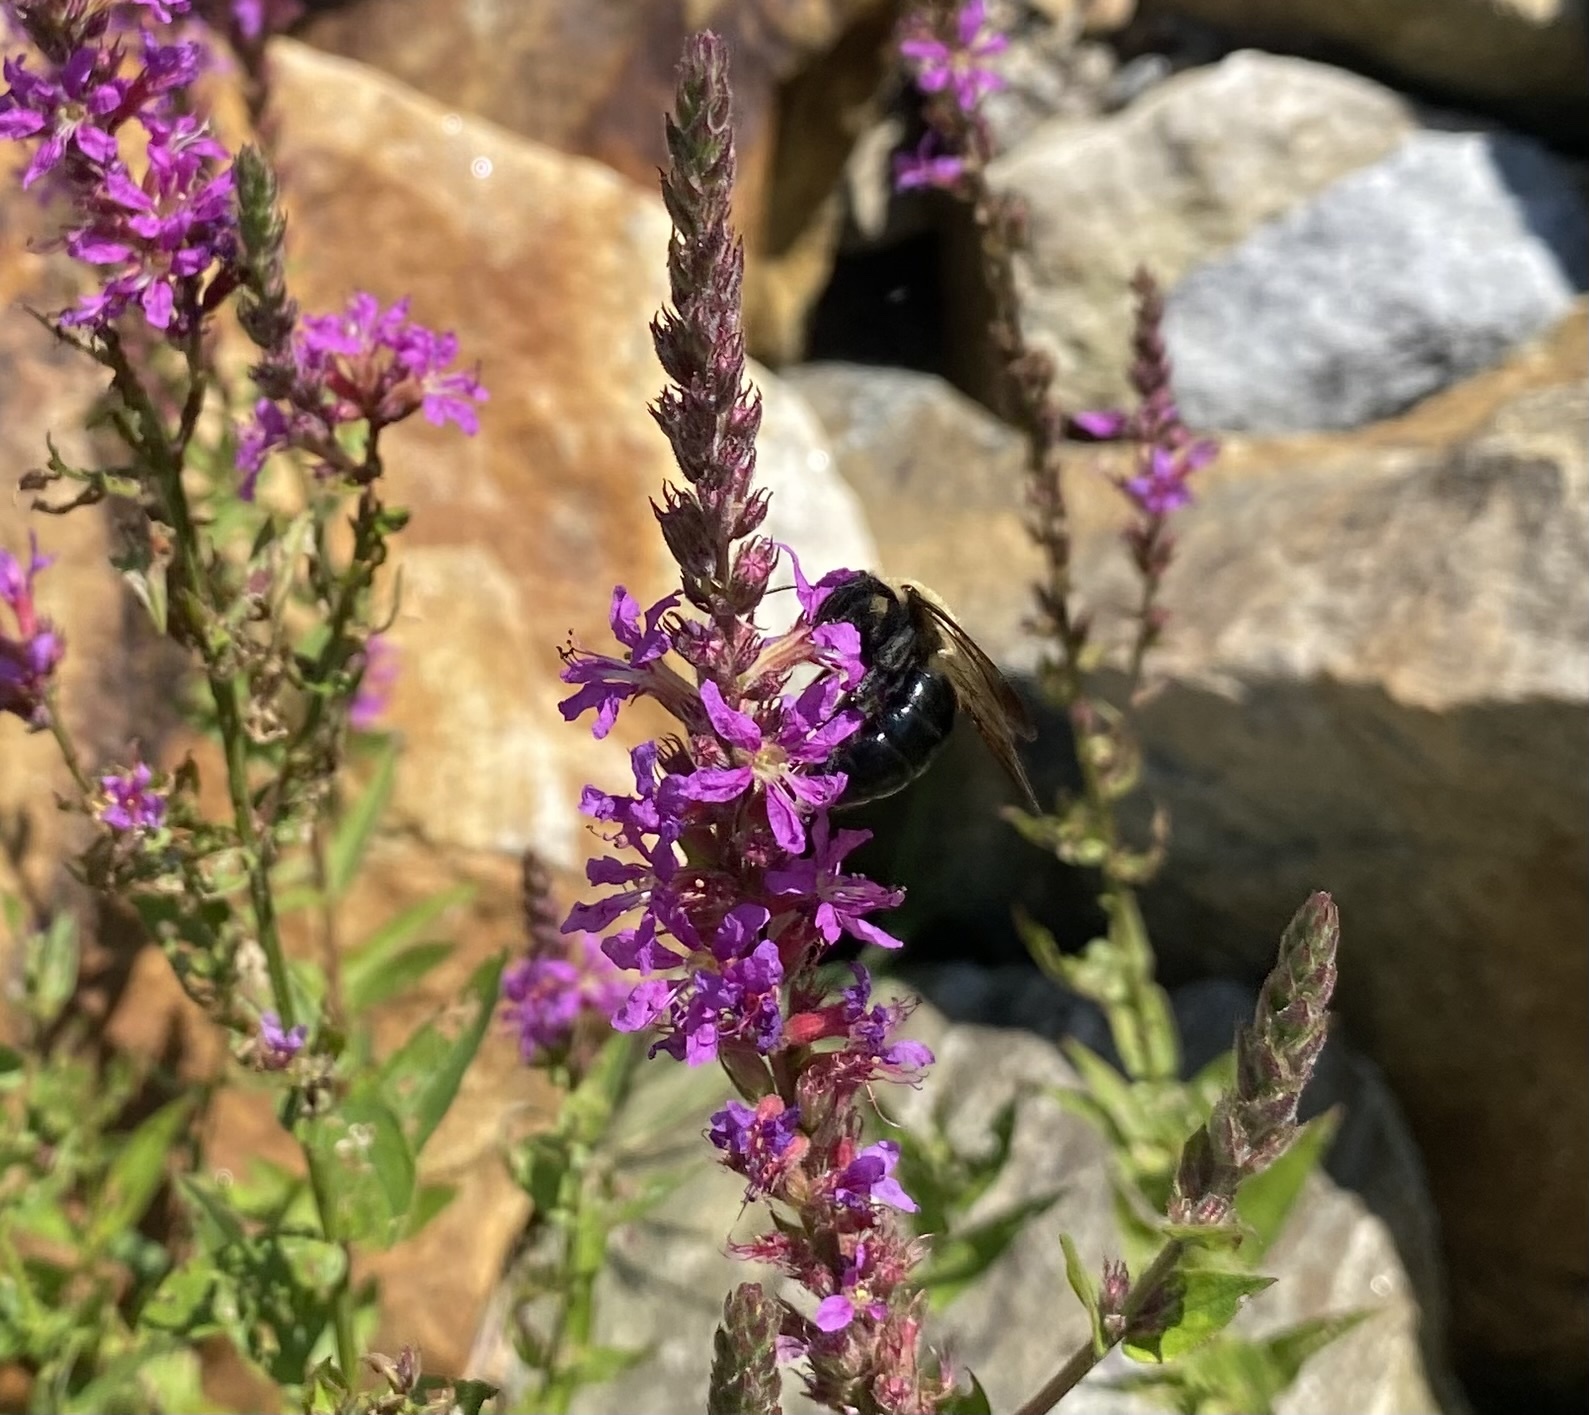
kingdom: Animalia
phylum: Arthropoda
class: Insecta
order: Hymenoptera
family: Apidae
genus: Xylocopa
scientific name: Xylocopa virginica
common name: Carpenter bee
